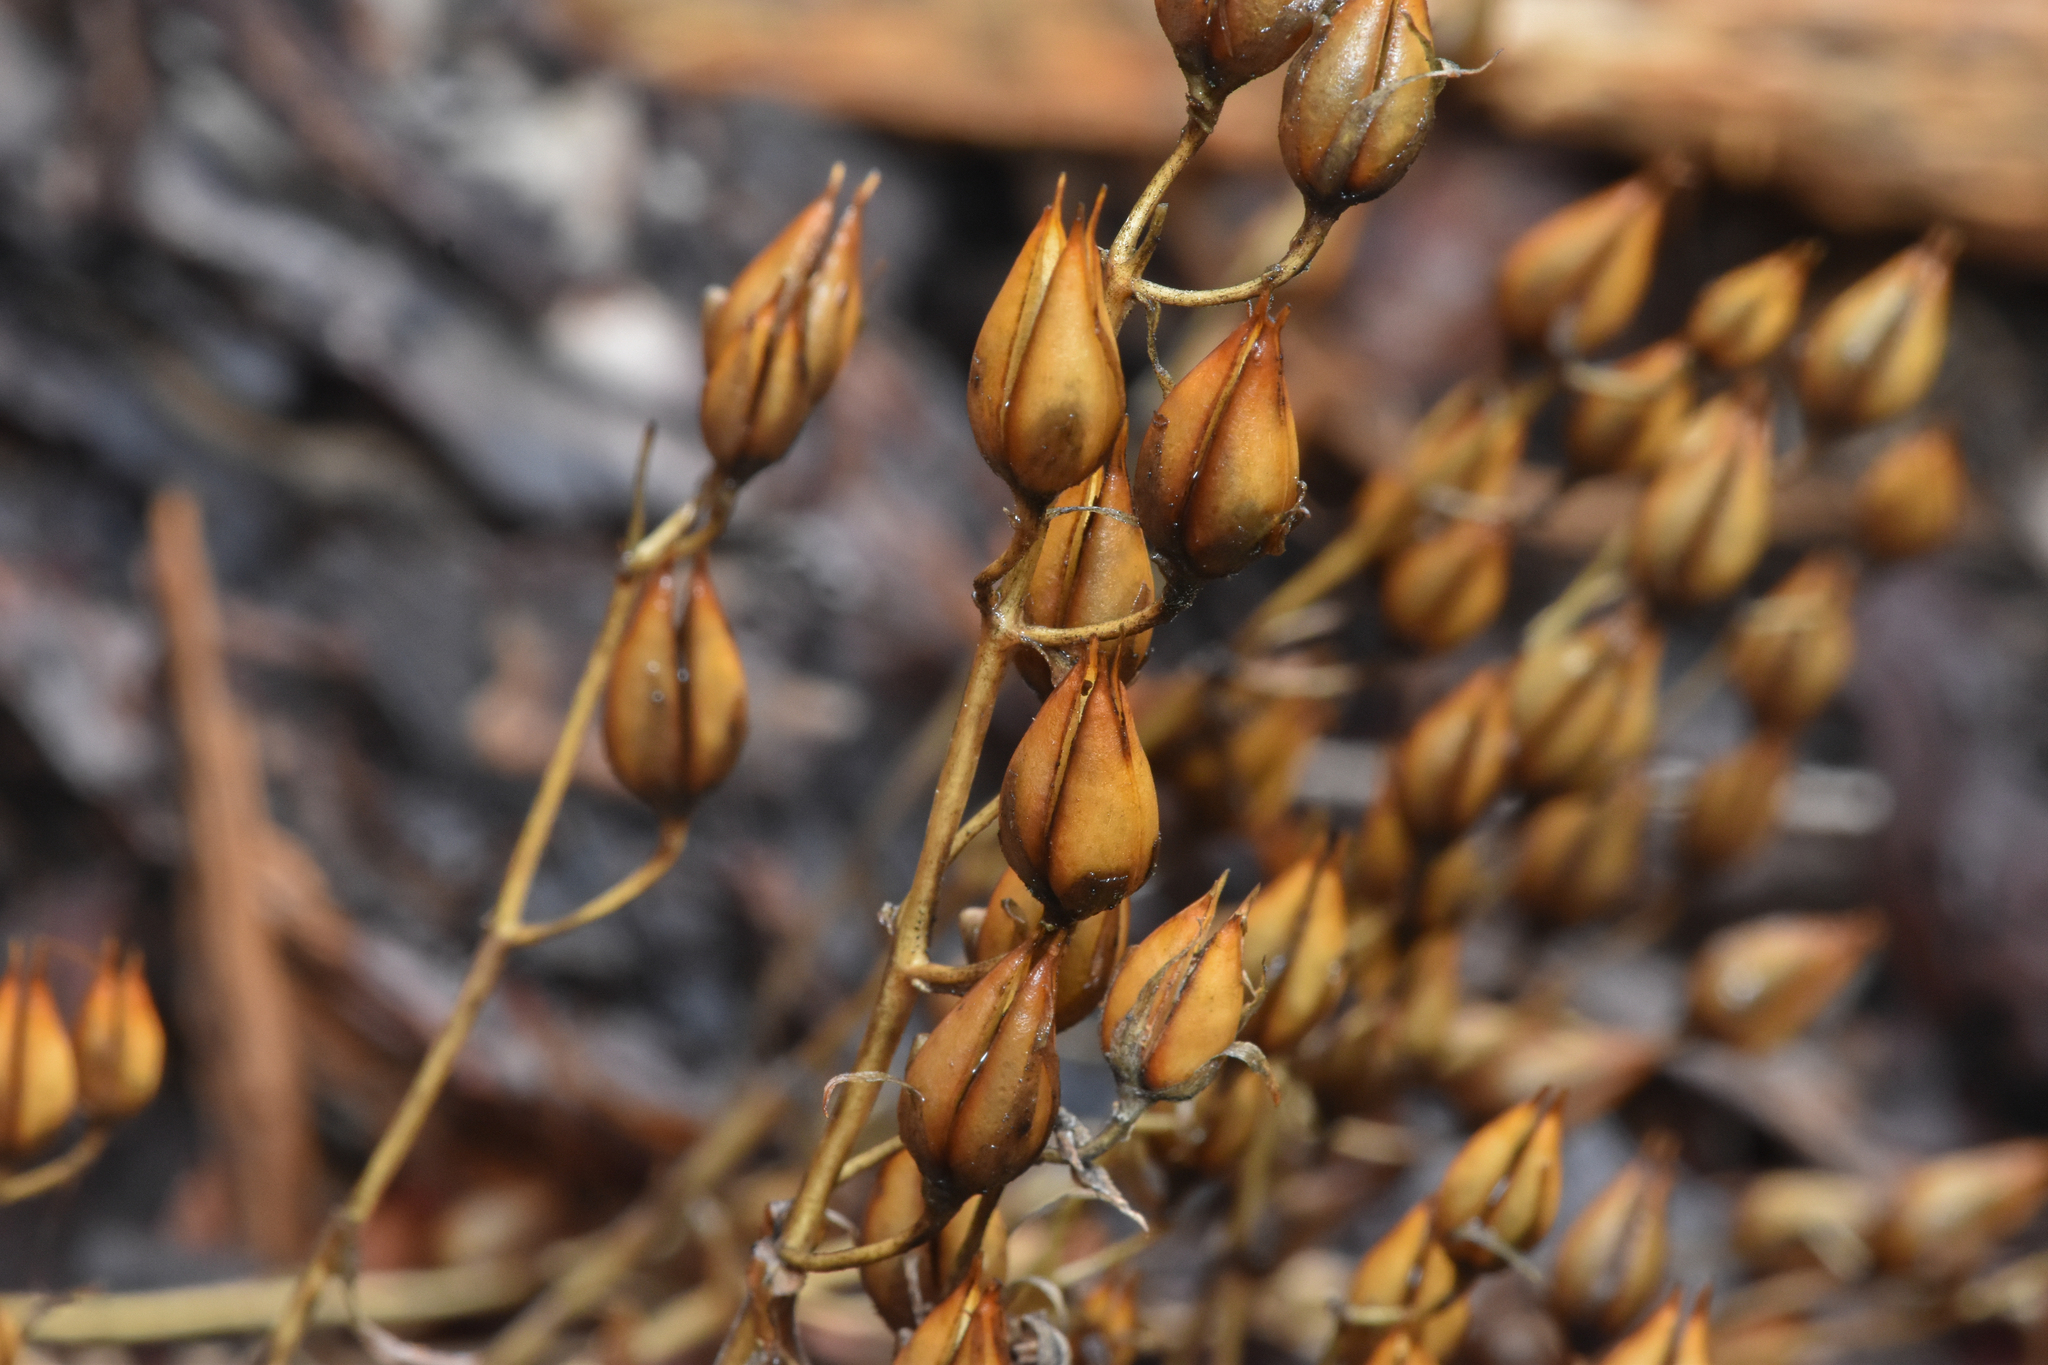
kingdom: Plantae
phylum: Tracheophyta
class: Magnoliopsida
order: Lamiales
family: Plantaginaceae
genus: Penstemon
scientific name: Penstemon fruticosus
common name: Bush penstemon
